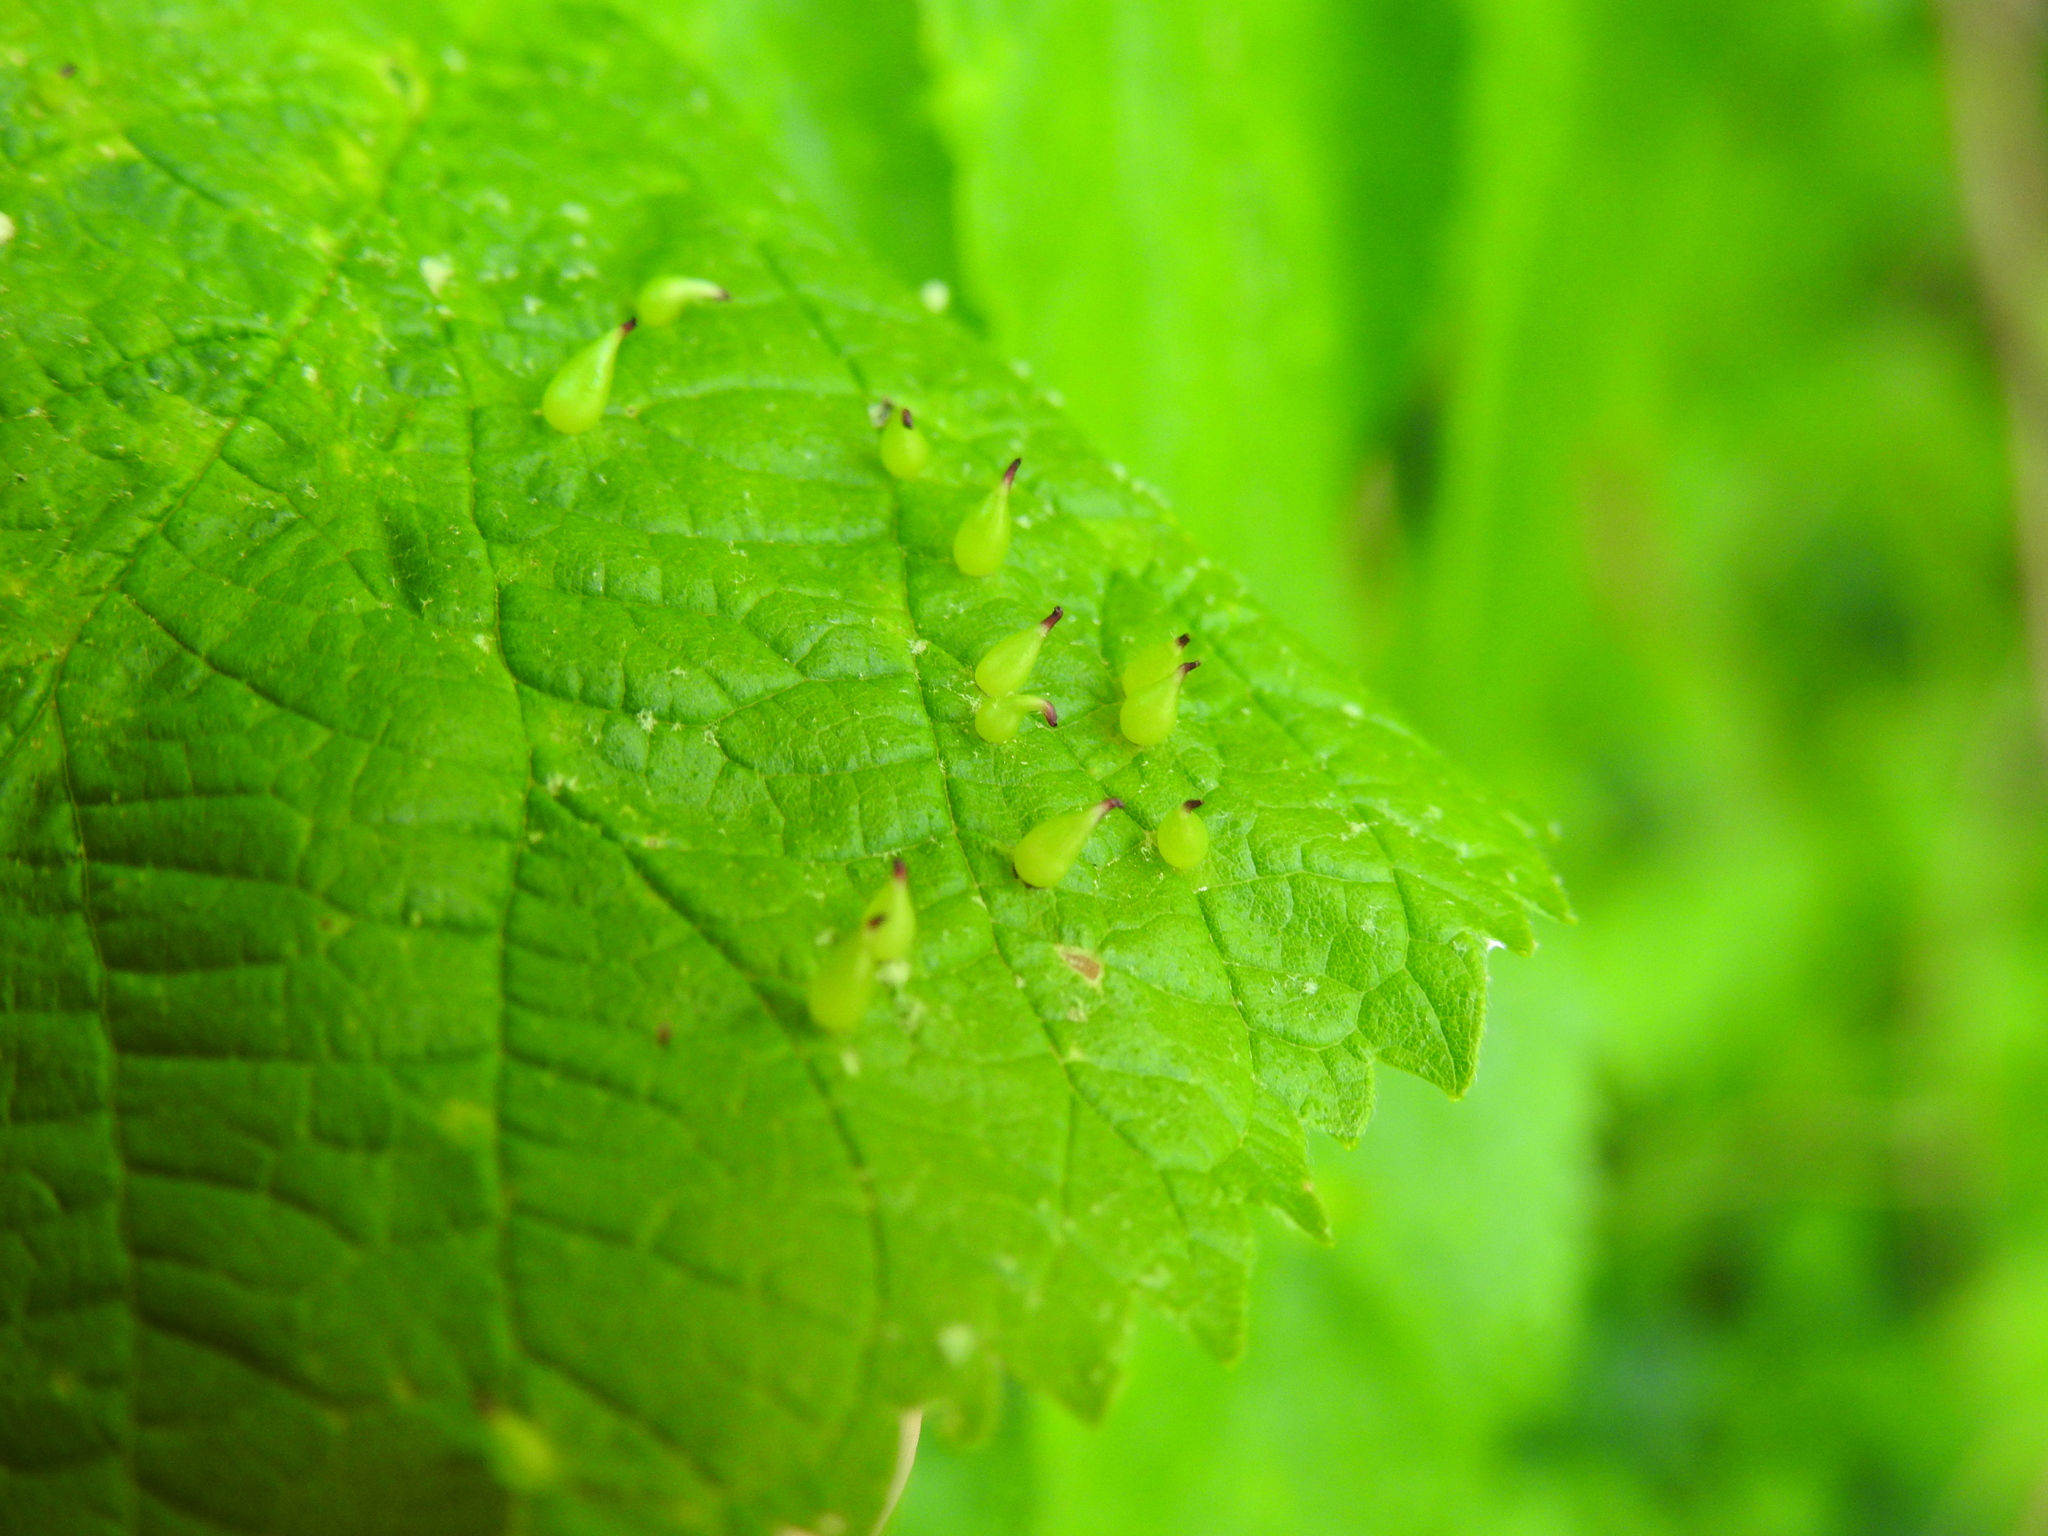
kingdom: Animalia
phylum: Arthropoda
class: Insecta
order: Diptera
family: Cecidomyiidae
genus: Celticecis
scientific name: Celticecis conica
